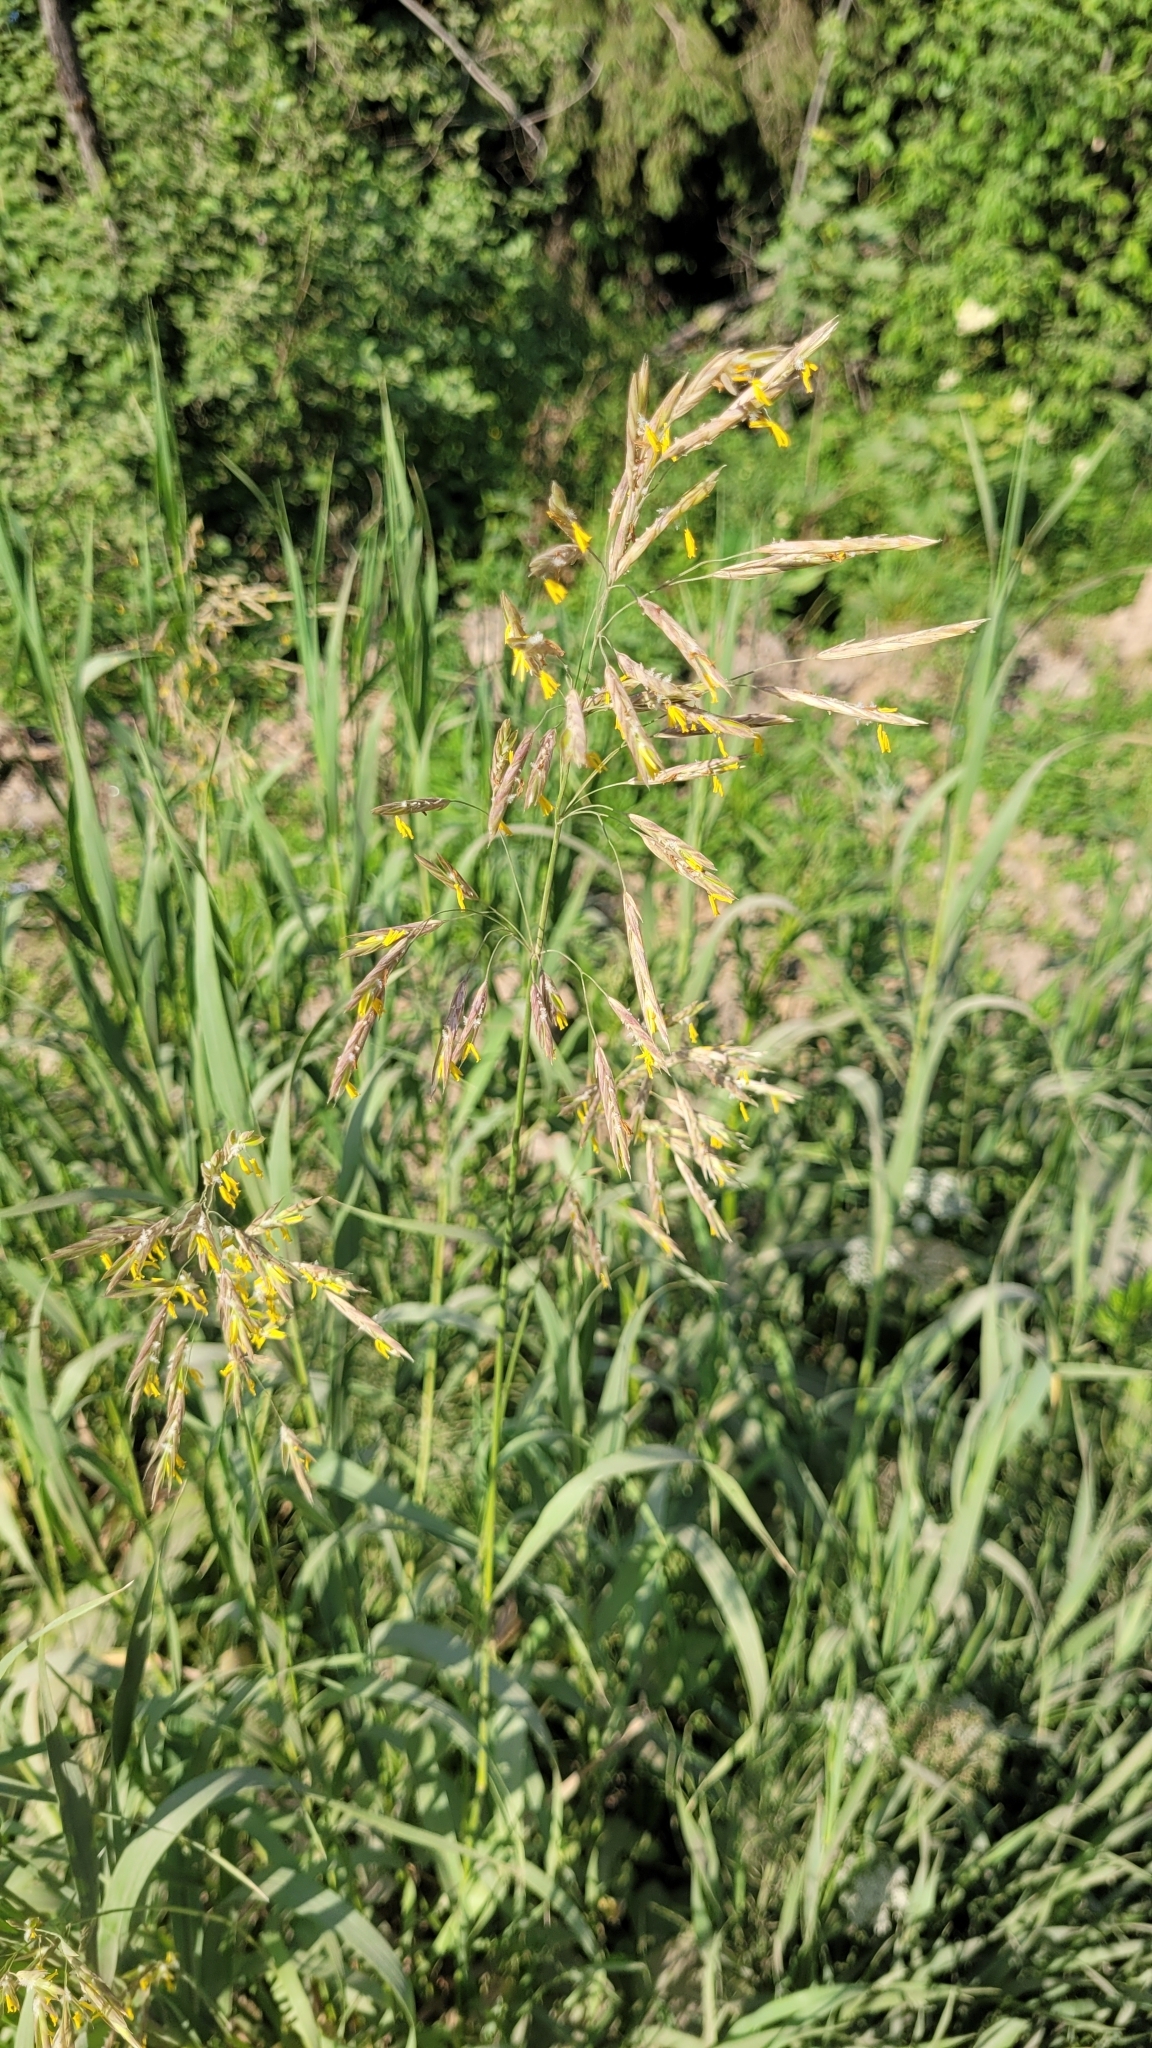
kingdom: Plantae
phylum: Tracheophyta
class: Liliopsida
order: Poales
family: Poaceae
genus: Bromus
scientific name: Bromus inermis
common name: Smooth brome
